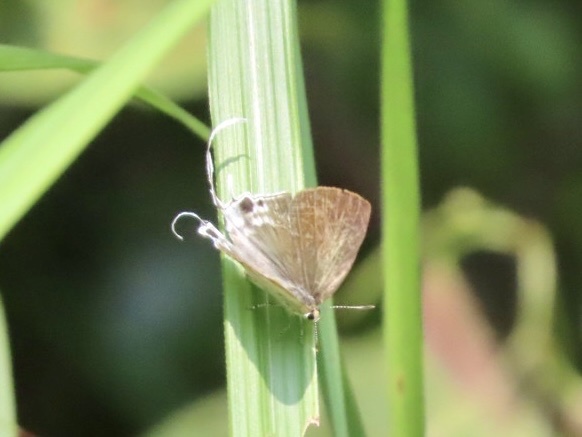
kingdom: Animalia
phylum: Arthropoda
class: Insecta
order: Lepidoptera
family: Lycaenidae
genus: Zeltus
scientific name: Zeltus amasa
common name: Fluffy tit
